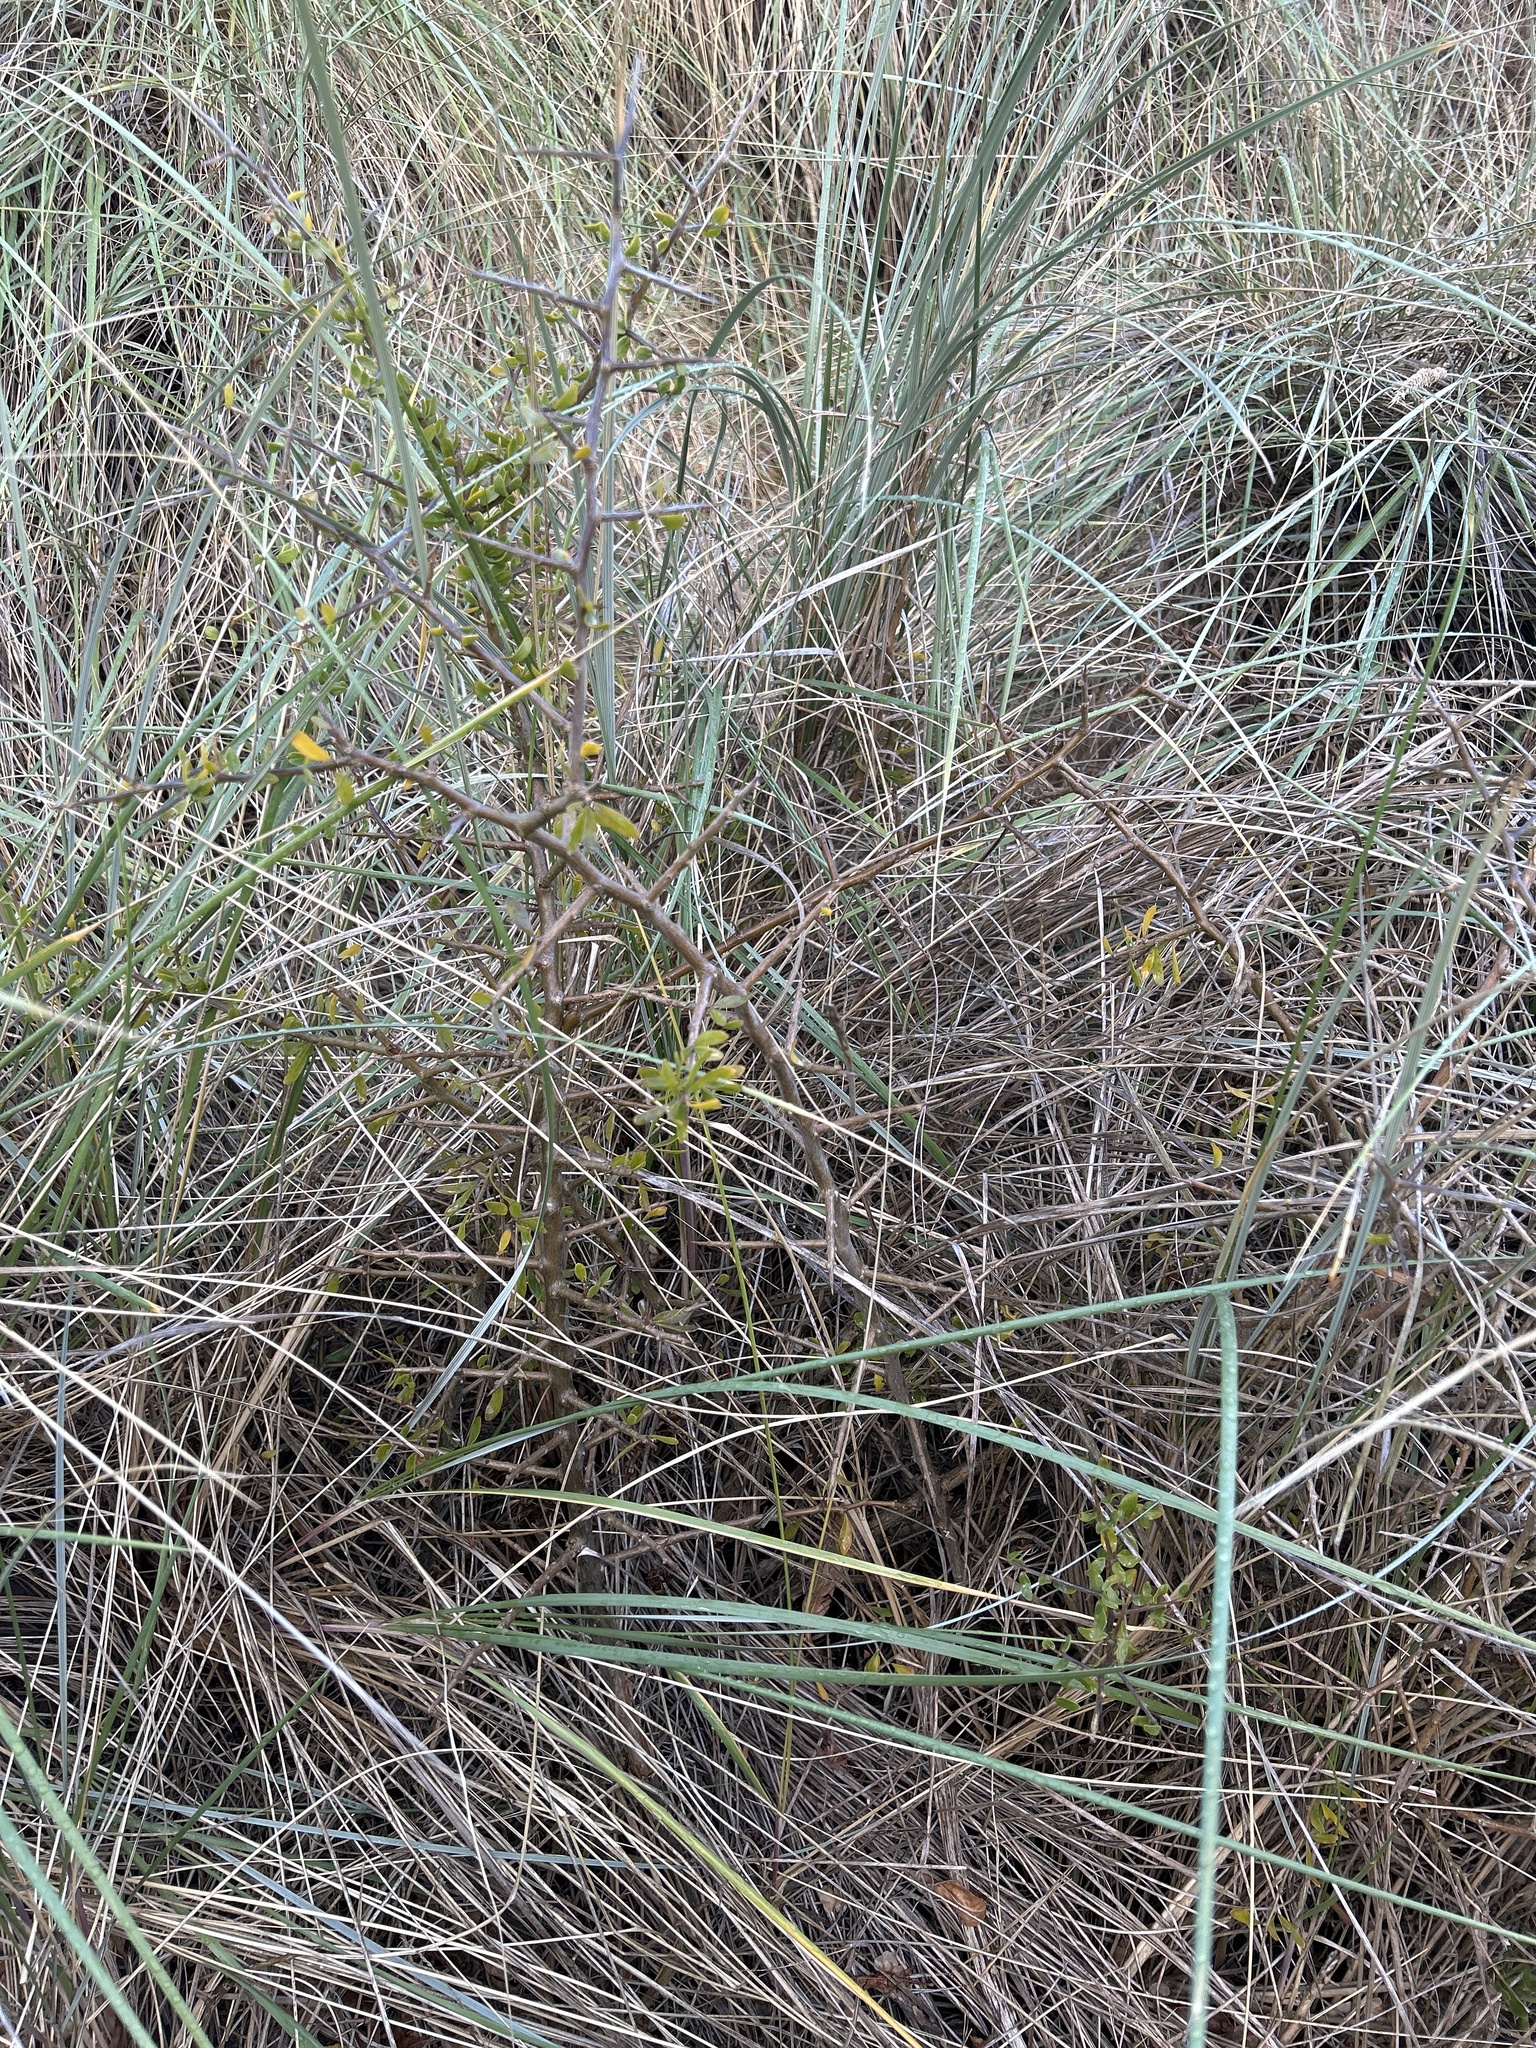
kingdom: Plantae
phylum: Tracheophyta
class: Magnoliopsida
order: Solanales
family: Solanaceae
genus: Lycium
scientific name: Lycium ferocissimum
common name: African boxthorn
